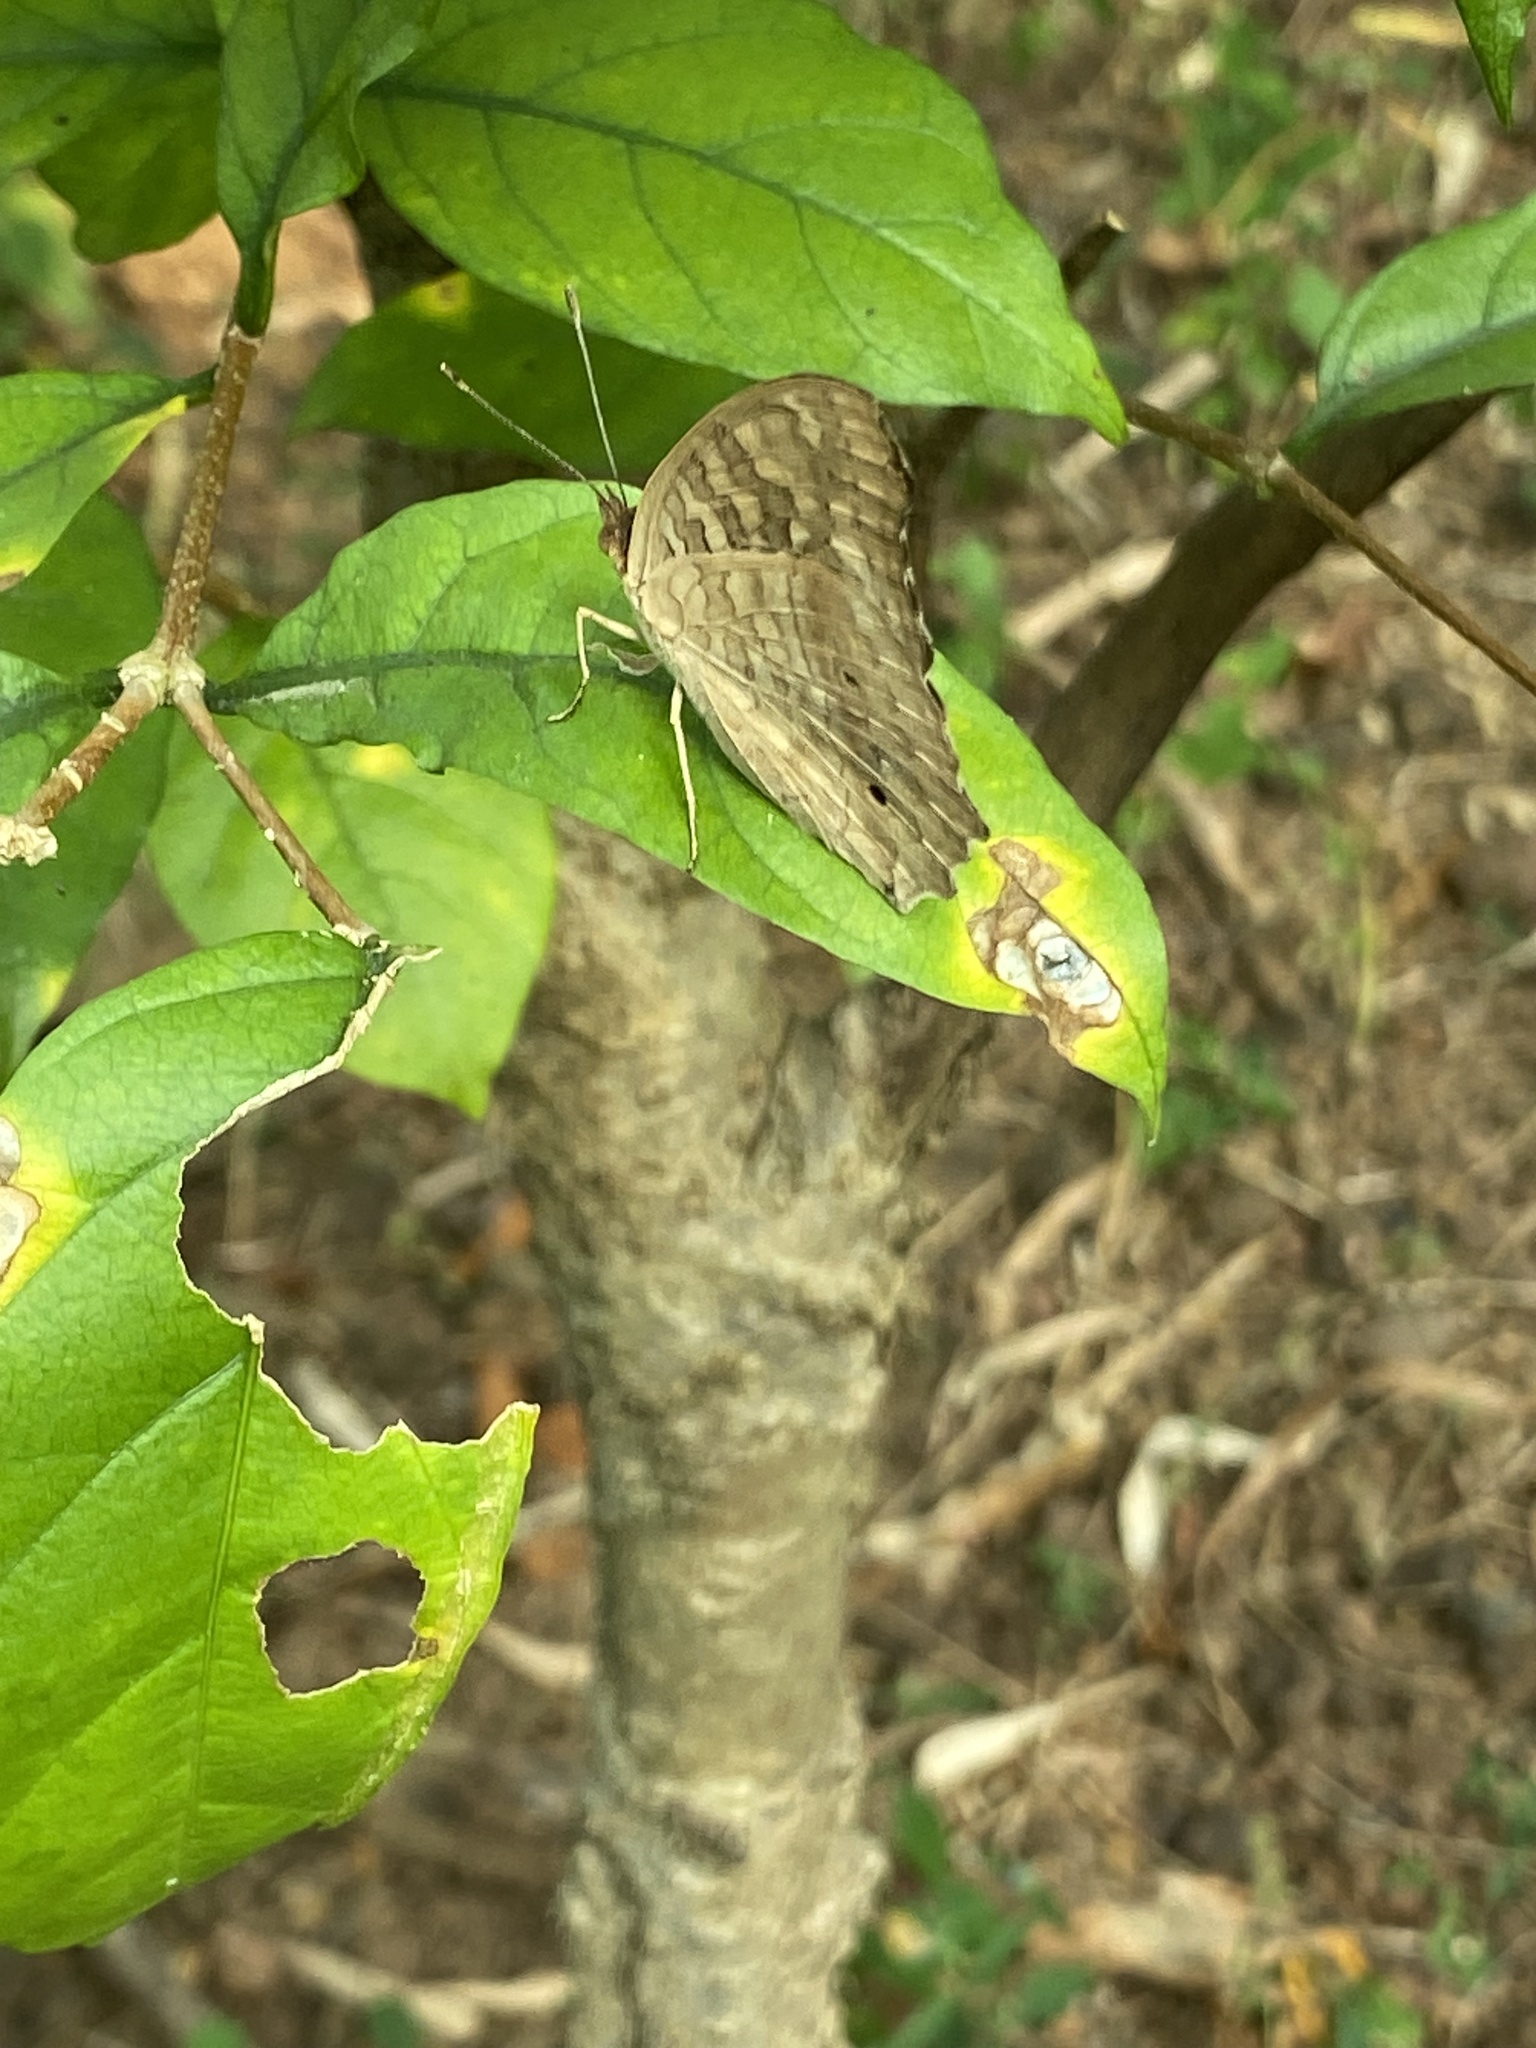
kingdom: Animalia
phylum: Arthropoda
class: Insecta
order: Lepidoptera
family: Nymphalidae
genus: Junonia
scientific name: Junonia lemonias
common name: Lemon pansy
